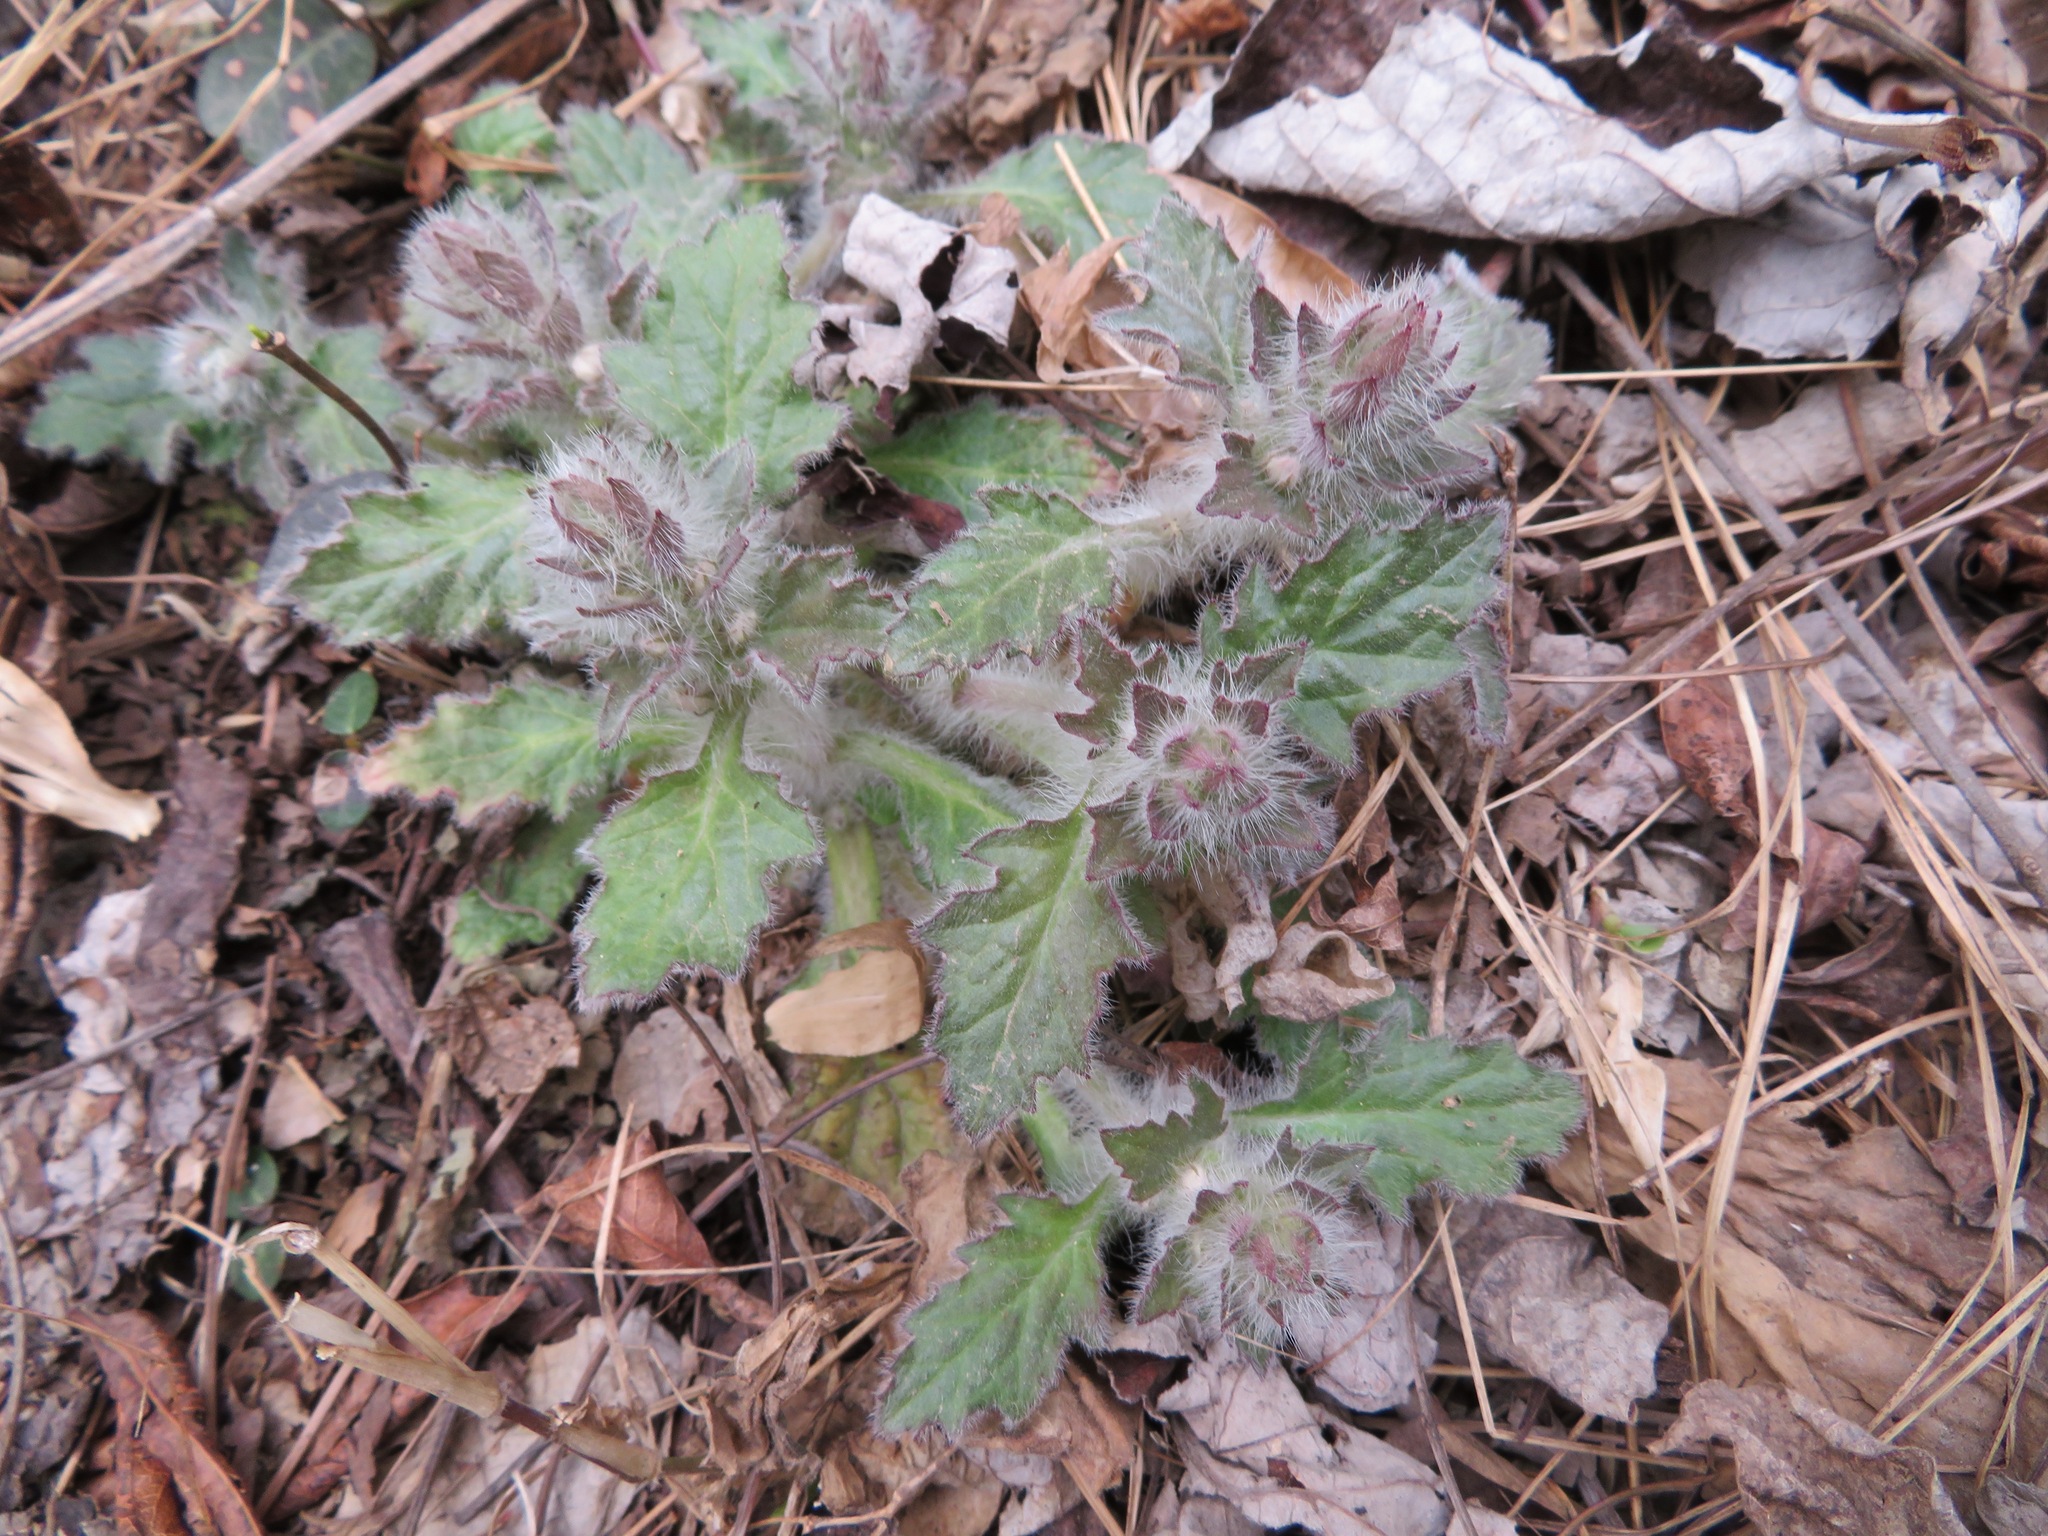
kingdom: Plantae
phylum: Tracheophyta
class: Magnoliopsida
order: Lamiales
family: Lamiaceae
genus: Ajuga
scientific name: Ajuga decumbens
